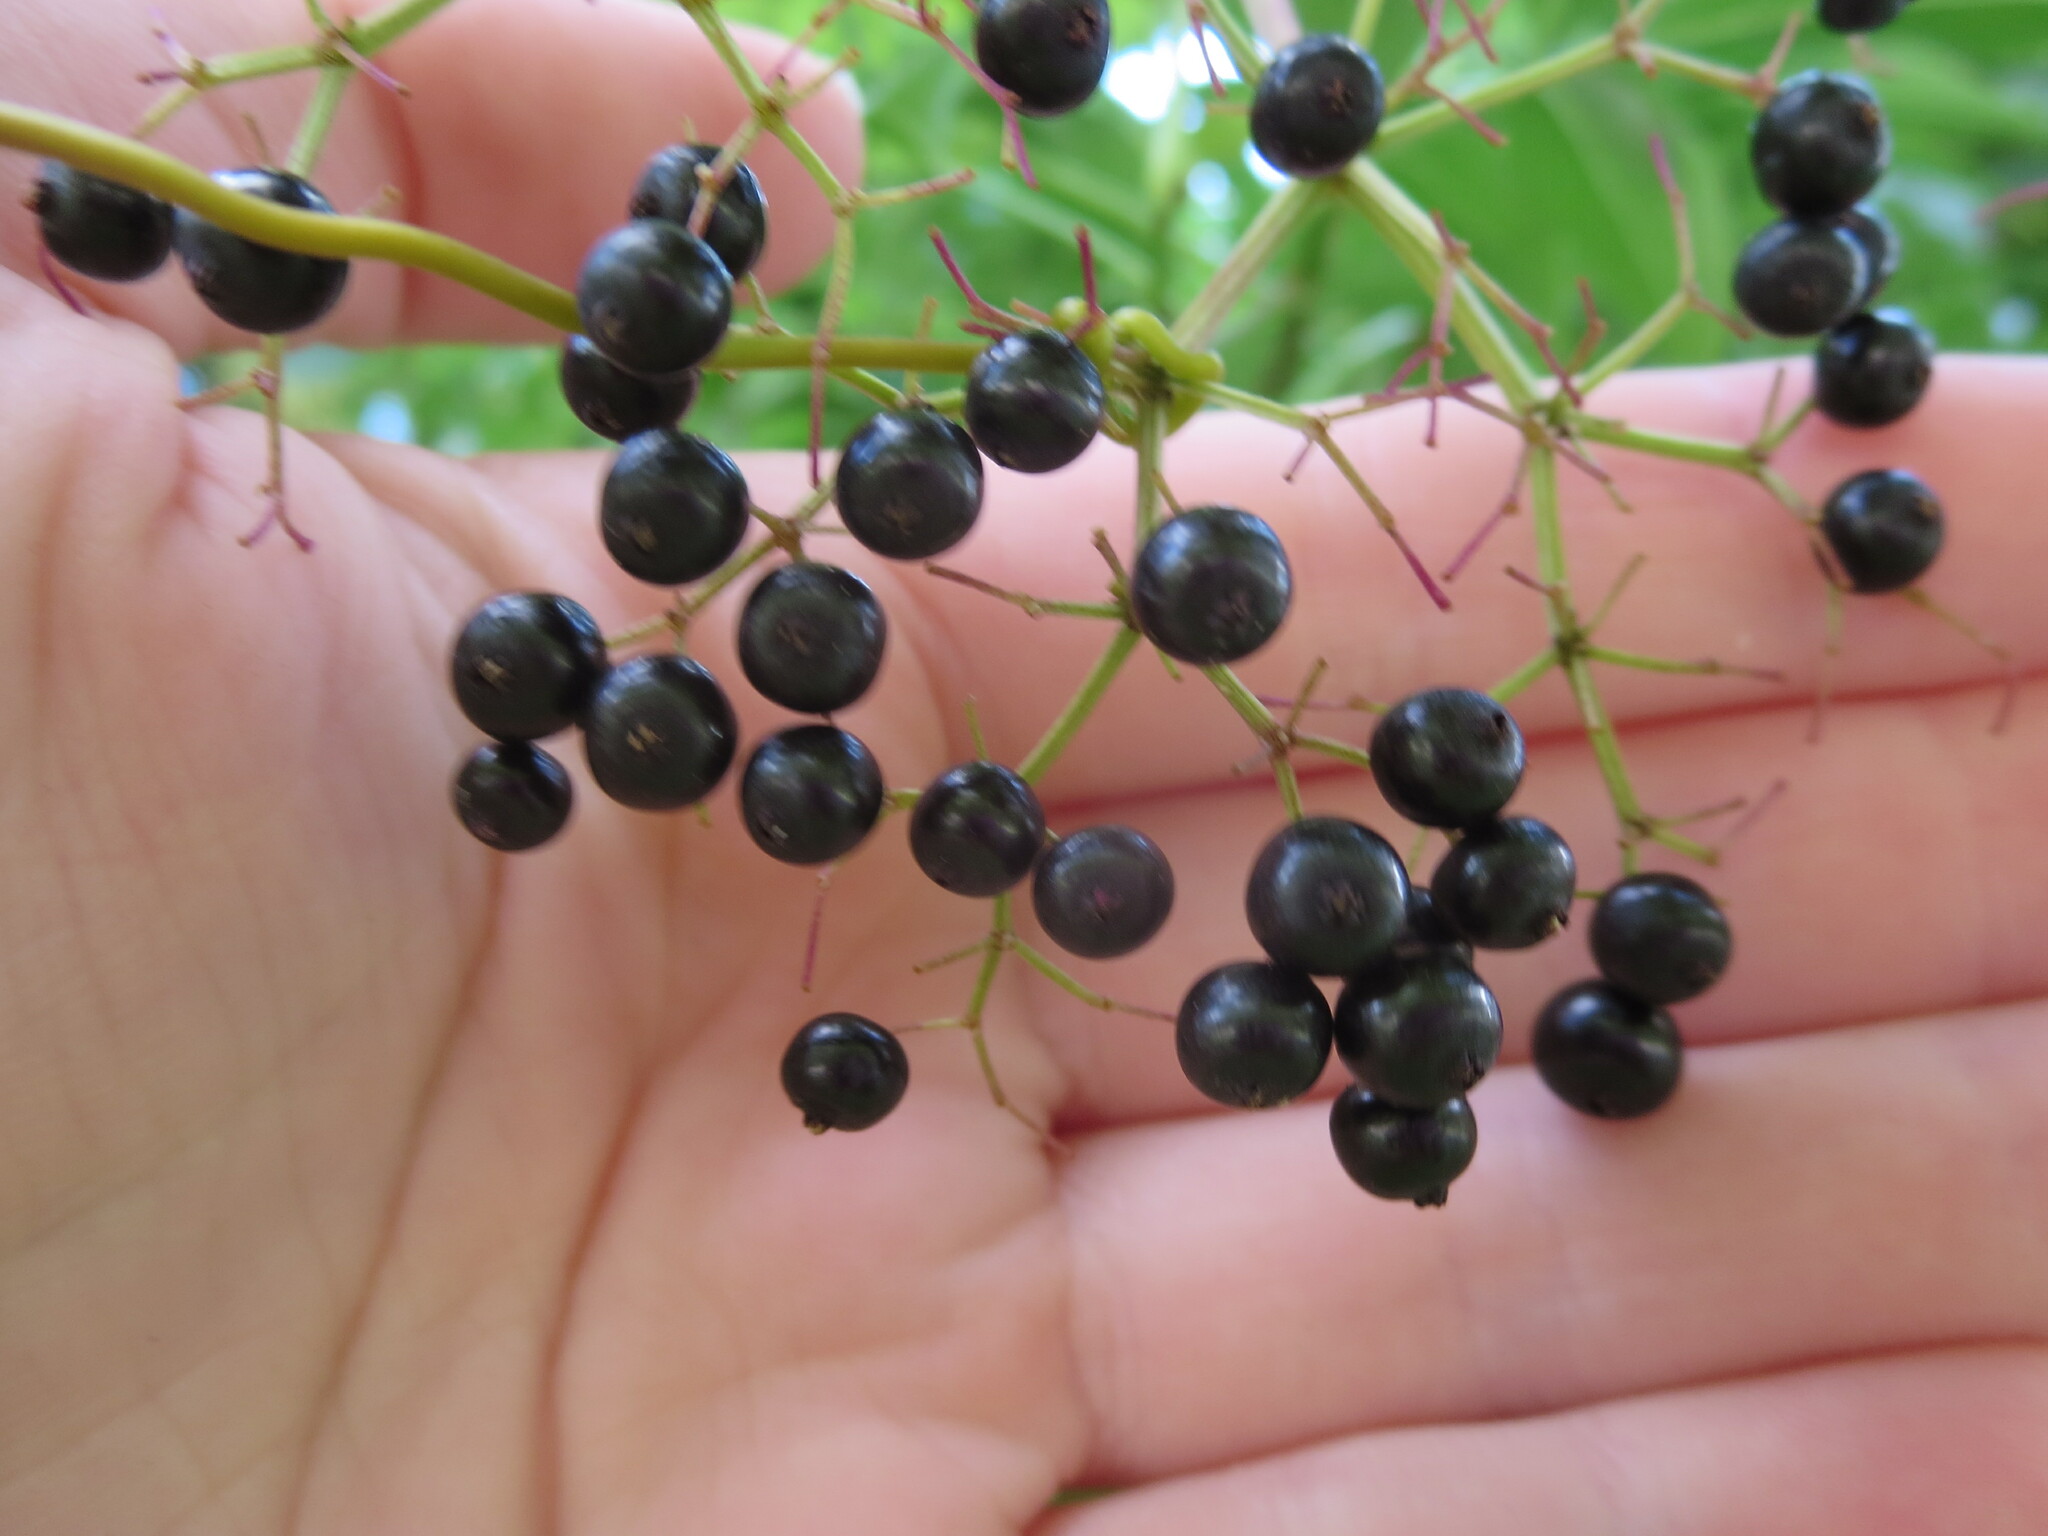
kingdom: Plantae
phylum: Tracheophyta
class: Magnoliopsida
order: Dipsacales
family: Viburnaceae
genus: Sambucus
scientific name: Sambucus canadensis
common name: American elder
